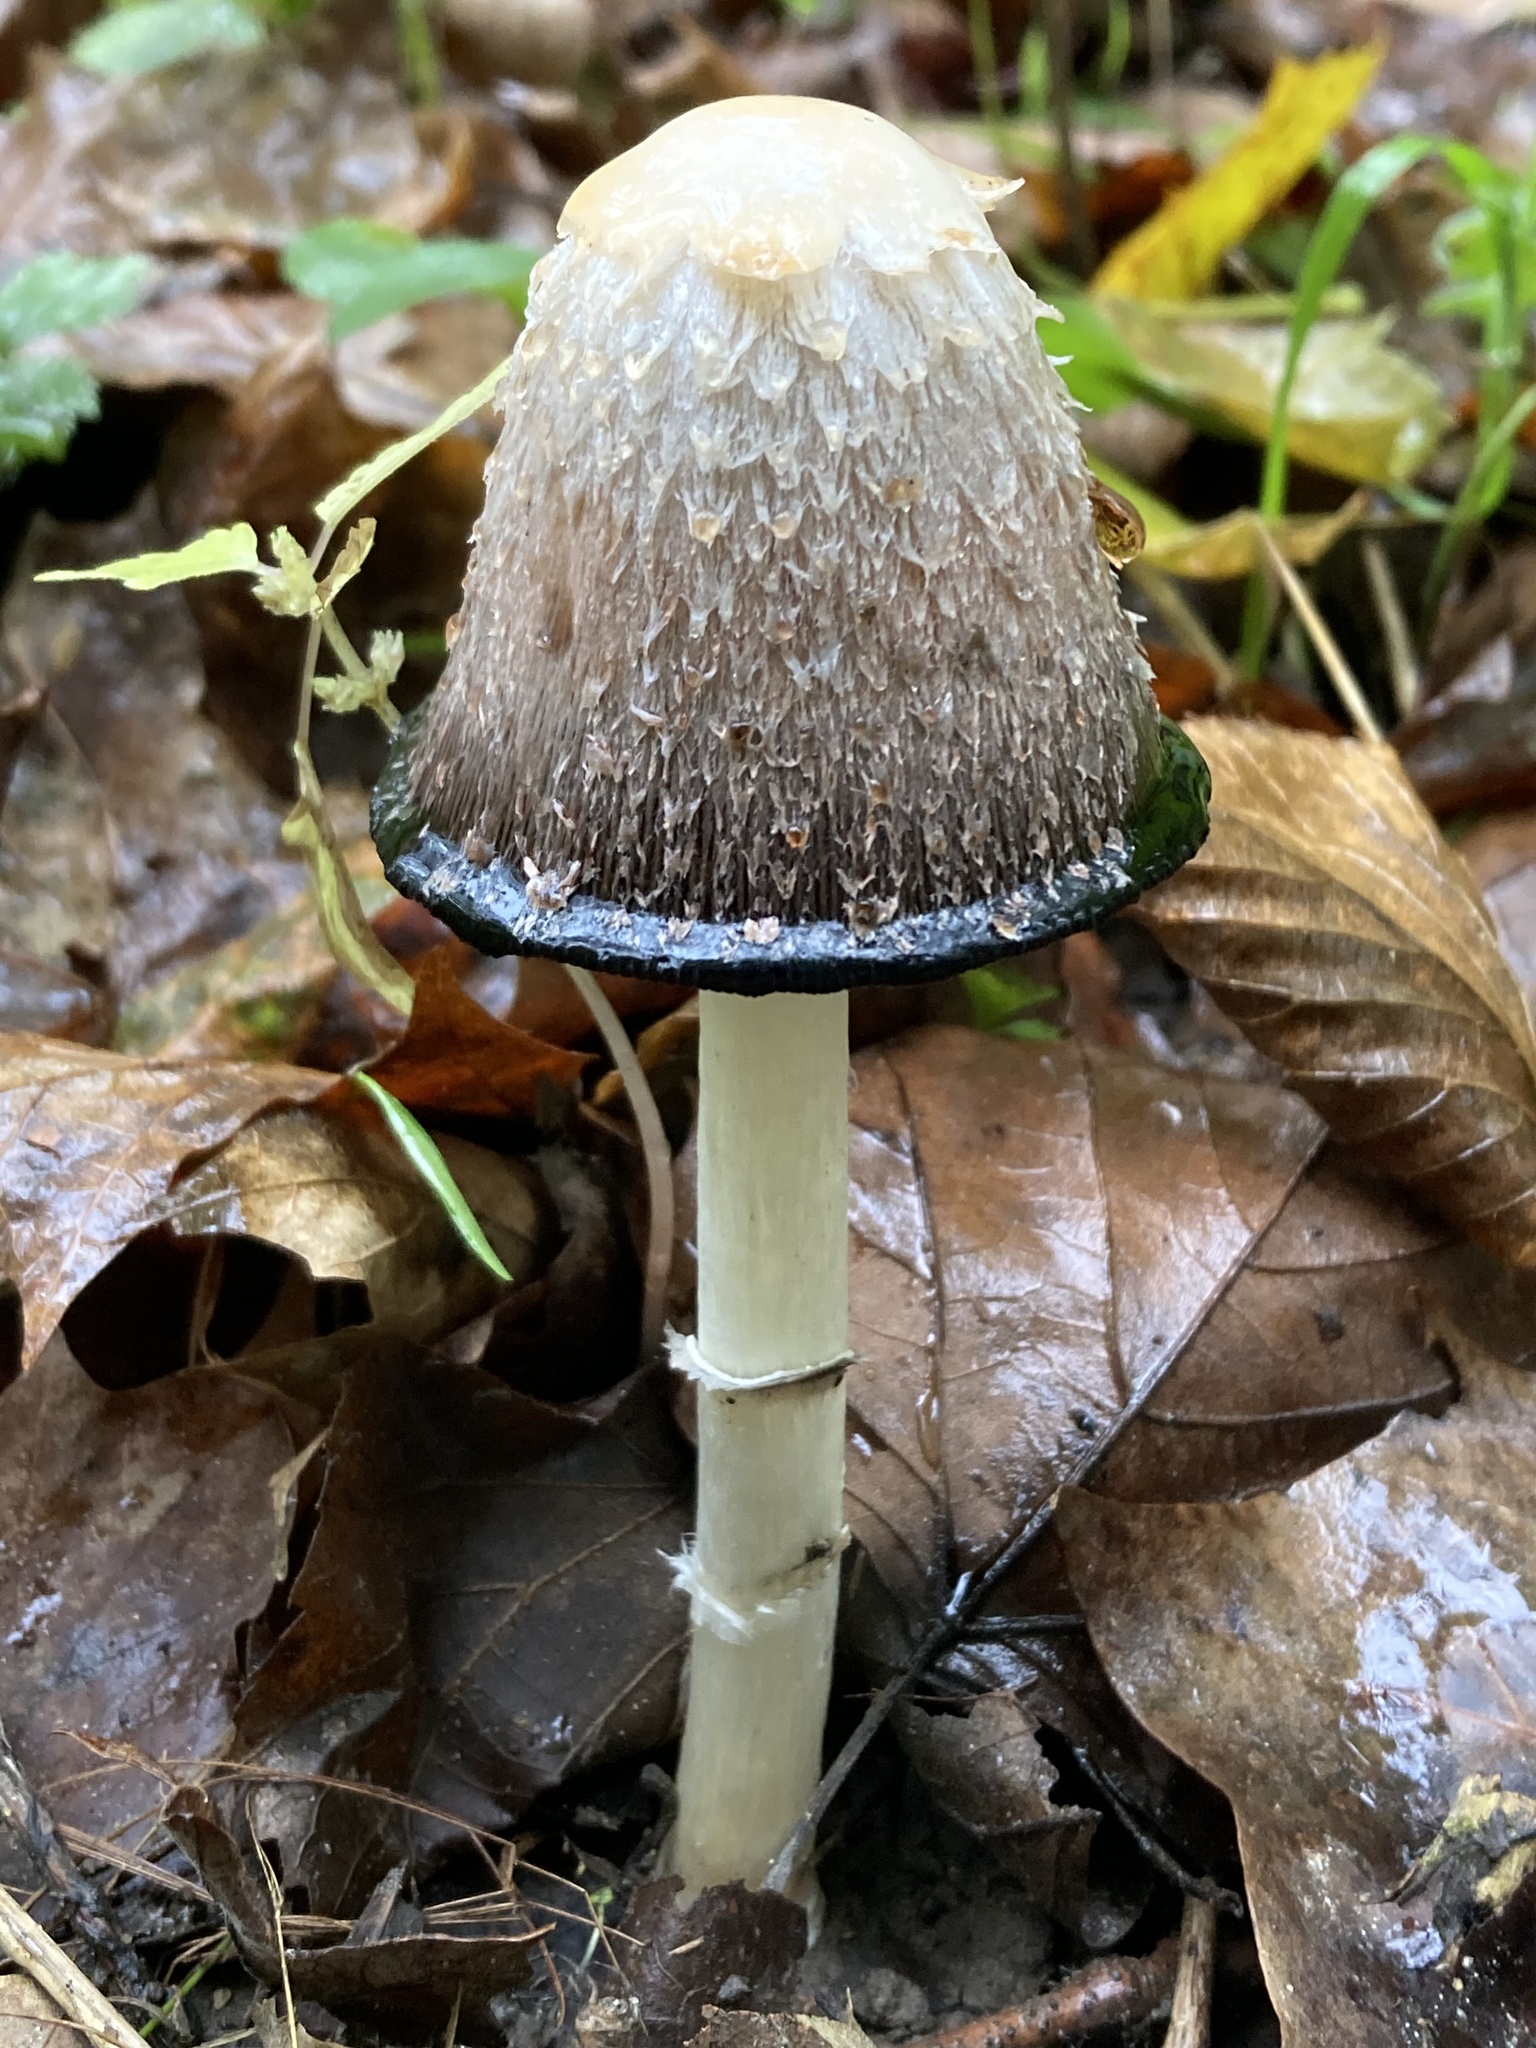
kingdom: Fungi
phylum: Basidiomycota
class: Agaricomycetes
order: Agaricales
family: Agaricaceae
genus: Coprinus
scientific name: Coprinus comatus
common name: Lawyer's wig
